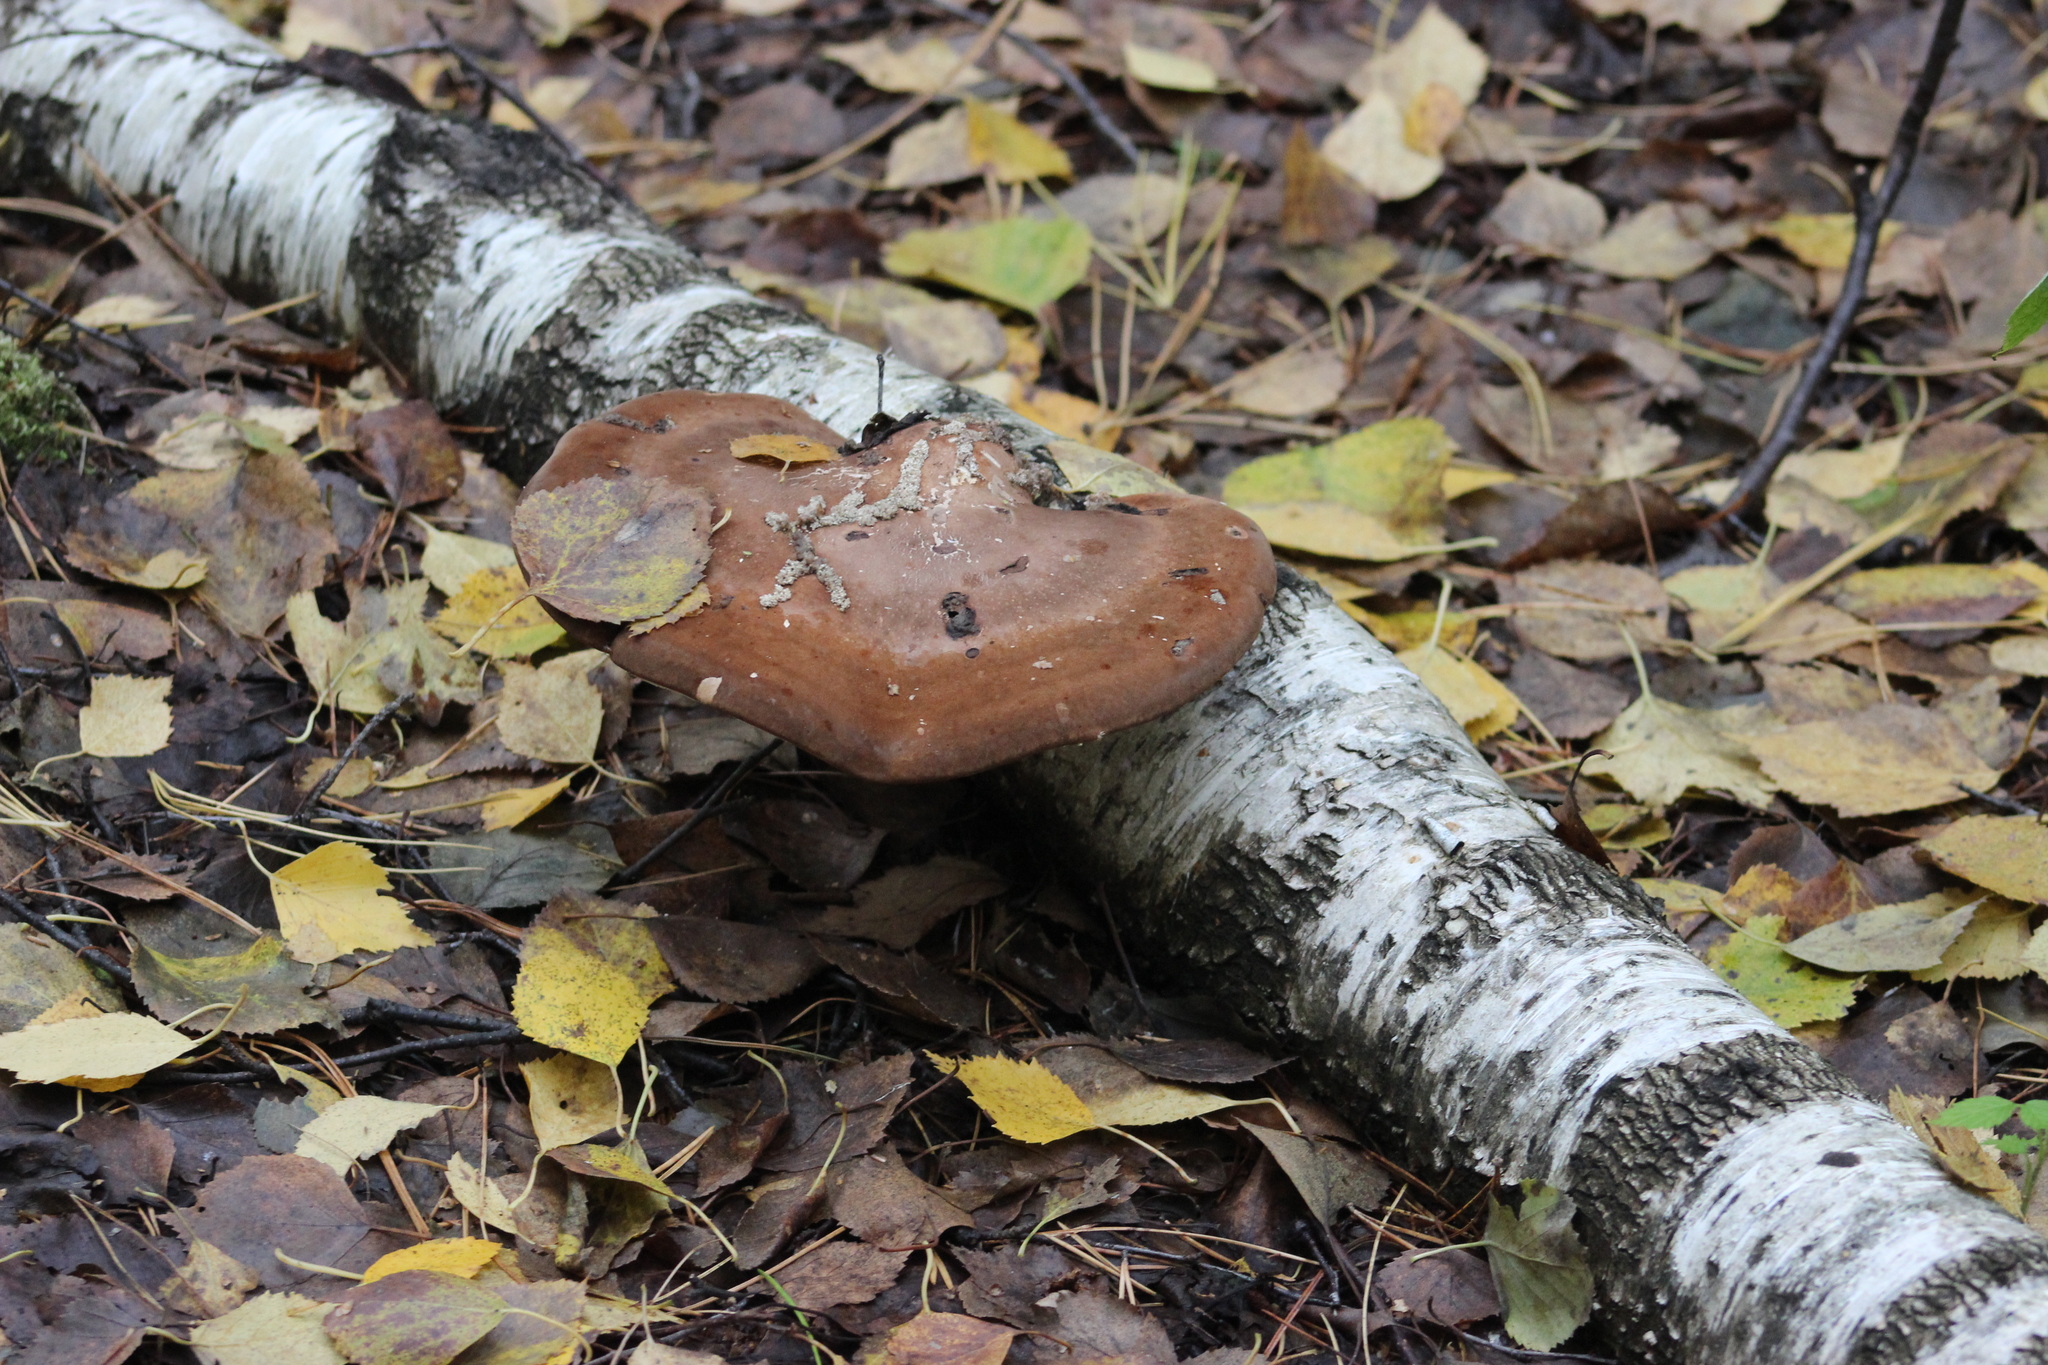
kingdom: Fungi
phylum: Basidiomycota
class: Agaricomycetes
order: Polyporales
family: Fomitopsidaceae
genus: Fomitopsis
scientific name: Fomitopsis betulina
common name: Birch polypore
